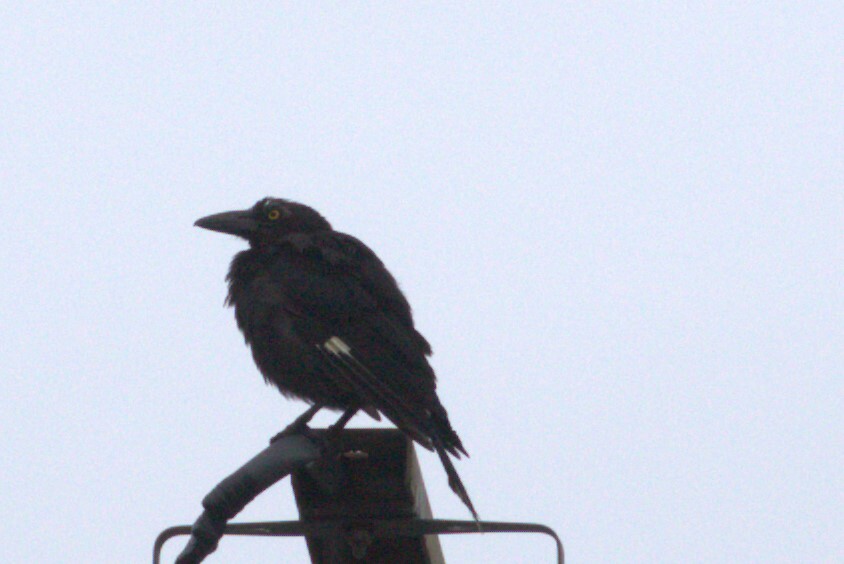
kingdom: Animalia
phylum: Chordata
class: Aves
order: Passeriformes
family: Cracticidae
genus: Strepera
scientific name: Strepera graculina
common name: Pied currawong
